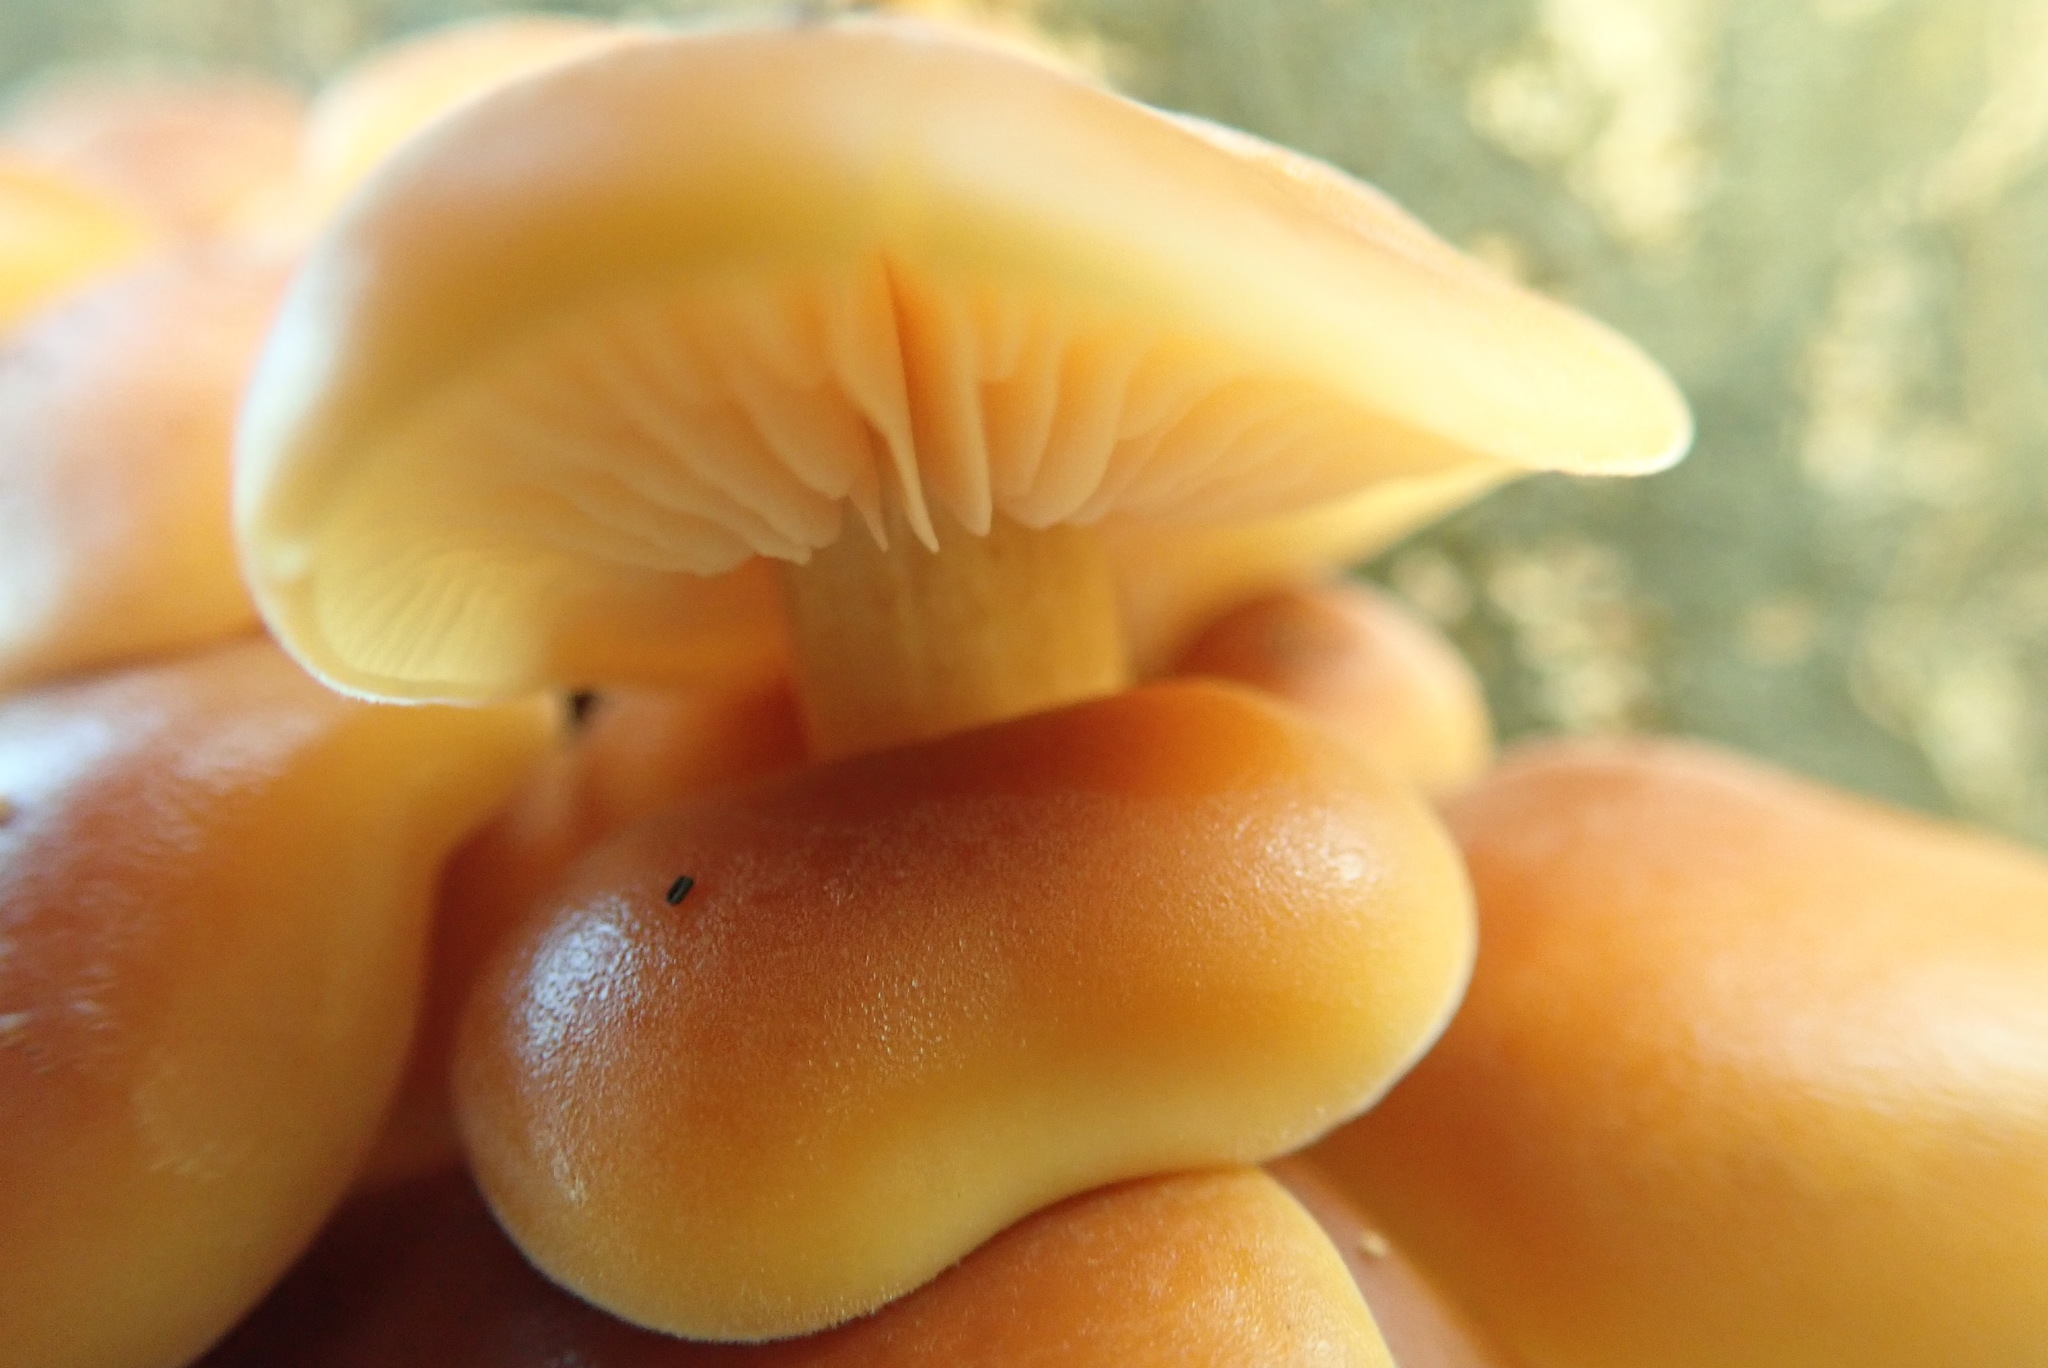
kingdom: Fungi
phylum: Basidiomycota
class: Agaricomycetes
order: Agaricales
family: Physalacriaceae
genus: Flammulina
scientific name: Flammulina
